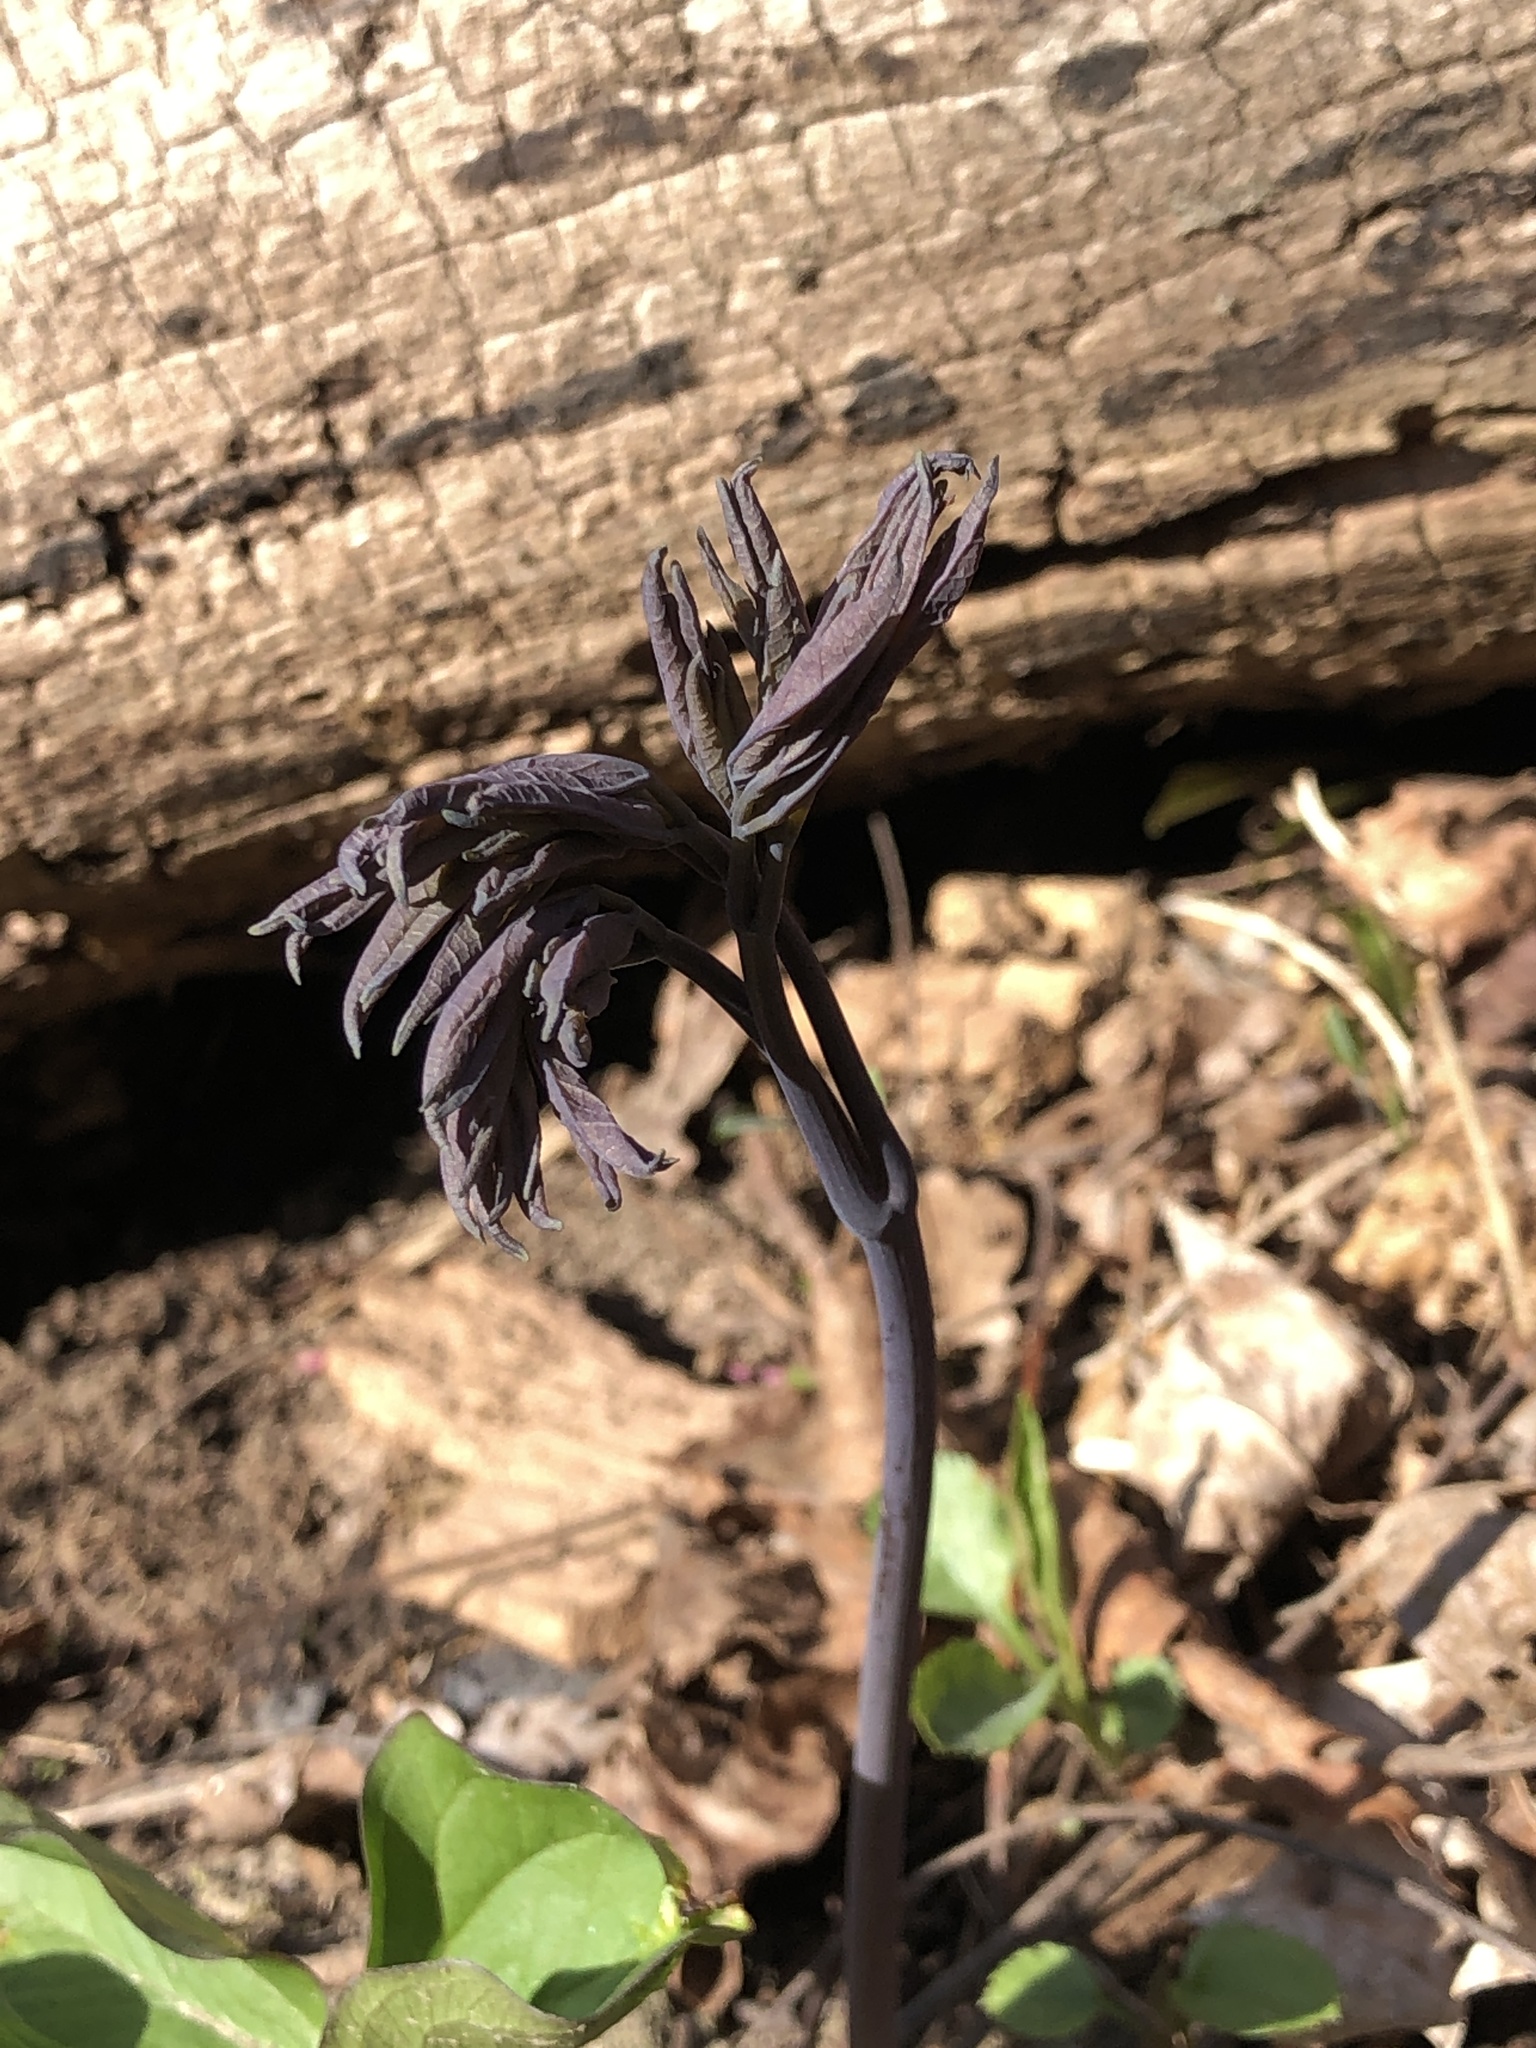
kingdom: Plantae
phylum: Tracheophyta
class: Magnoliopsida
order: Ranunculales
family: Berberidaceae
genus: Caulophyllum
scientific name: Caulophyllum giganteum
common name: Blue cohosh
